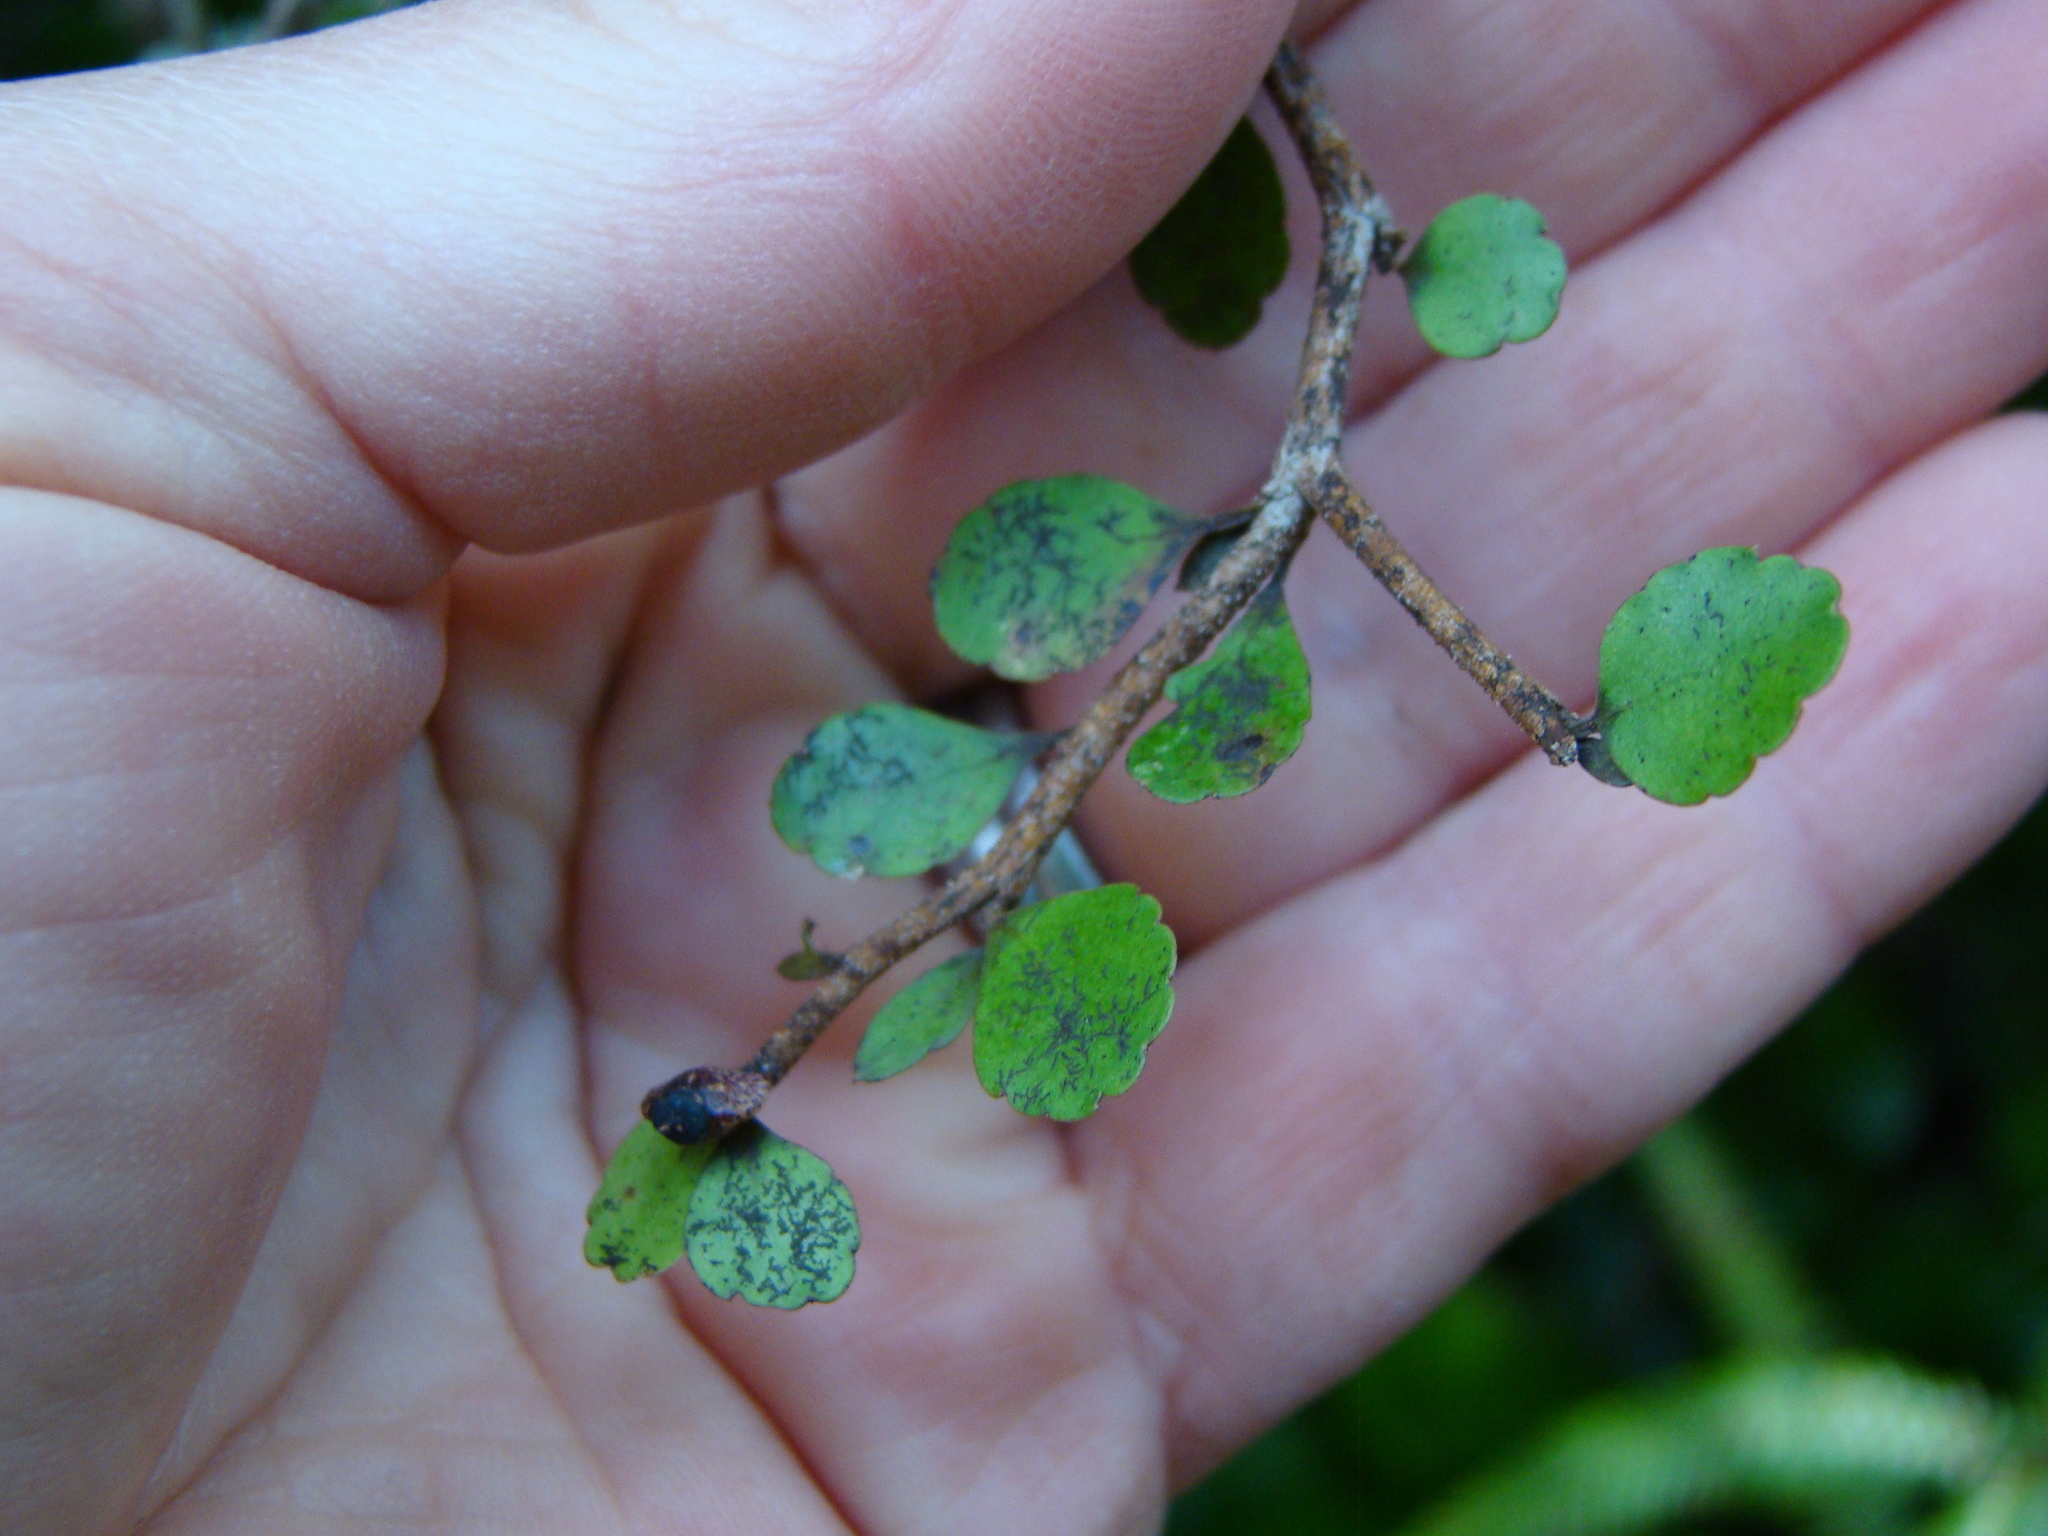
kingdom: Plantae
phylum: Tracheophyta
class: Magnoliopsida
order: Apiales
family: Araliaceae
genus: Raukaua
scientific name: Raukaua anomalus
